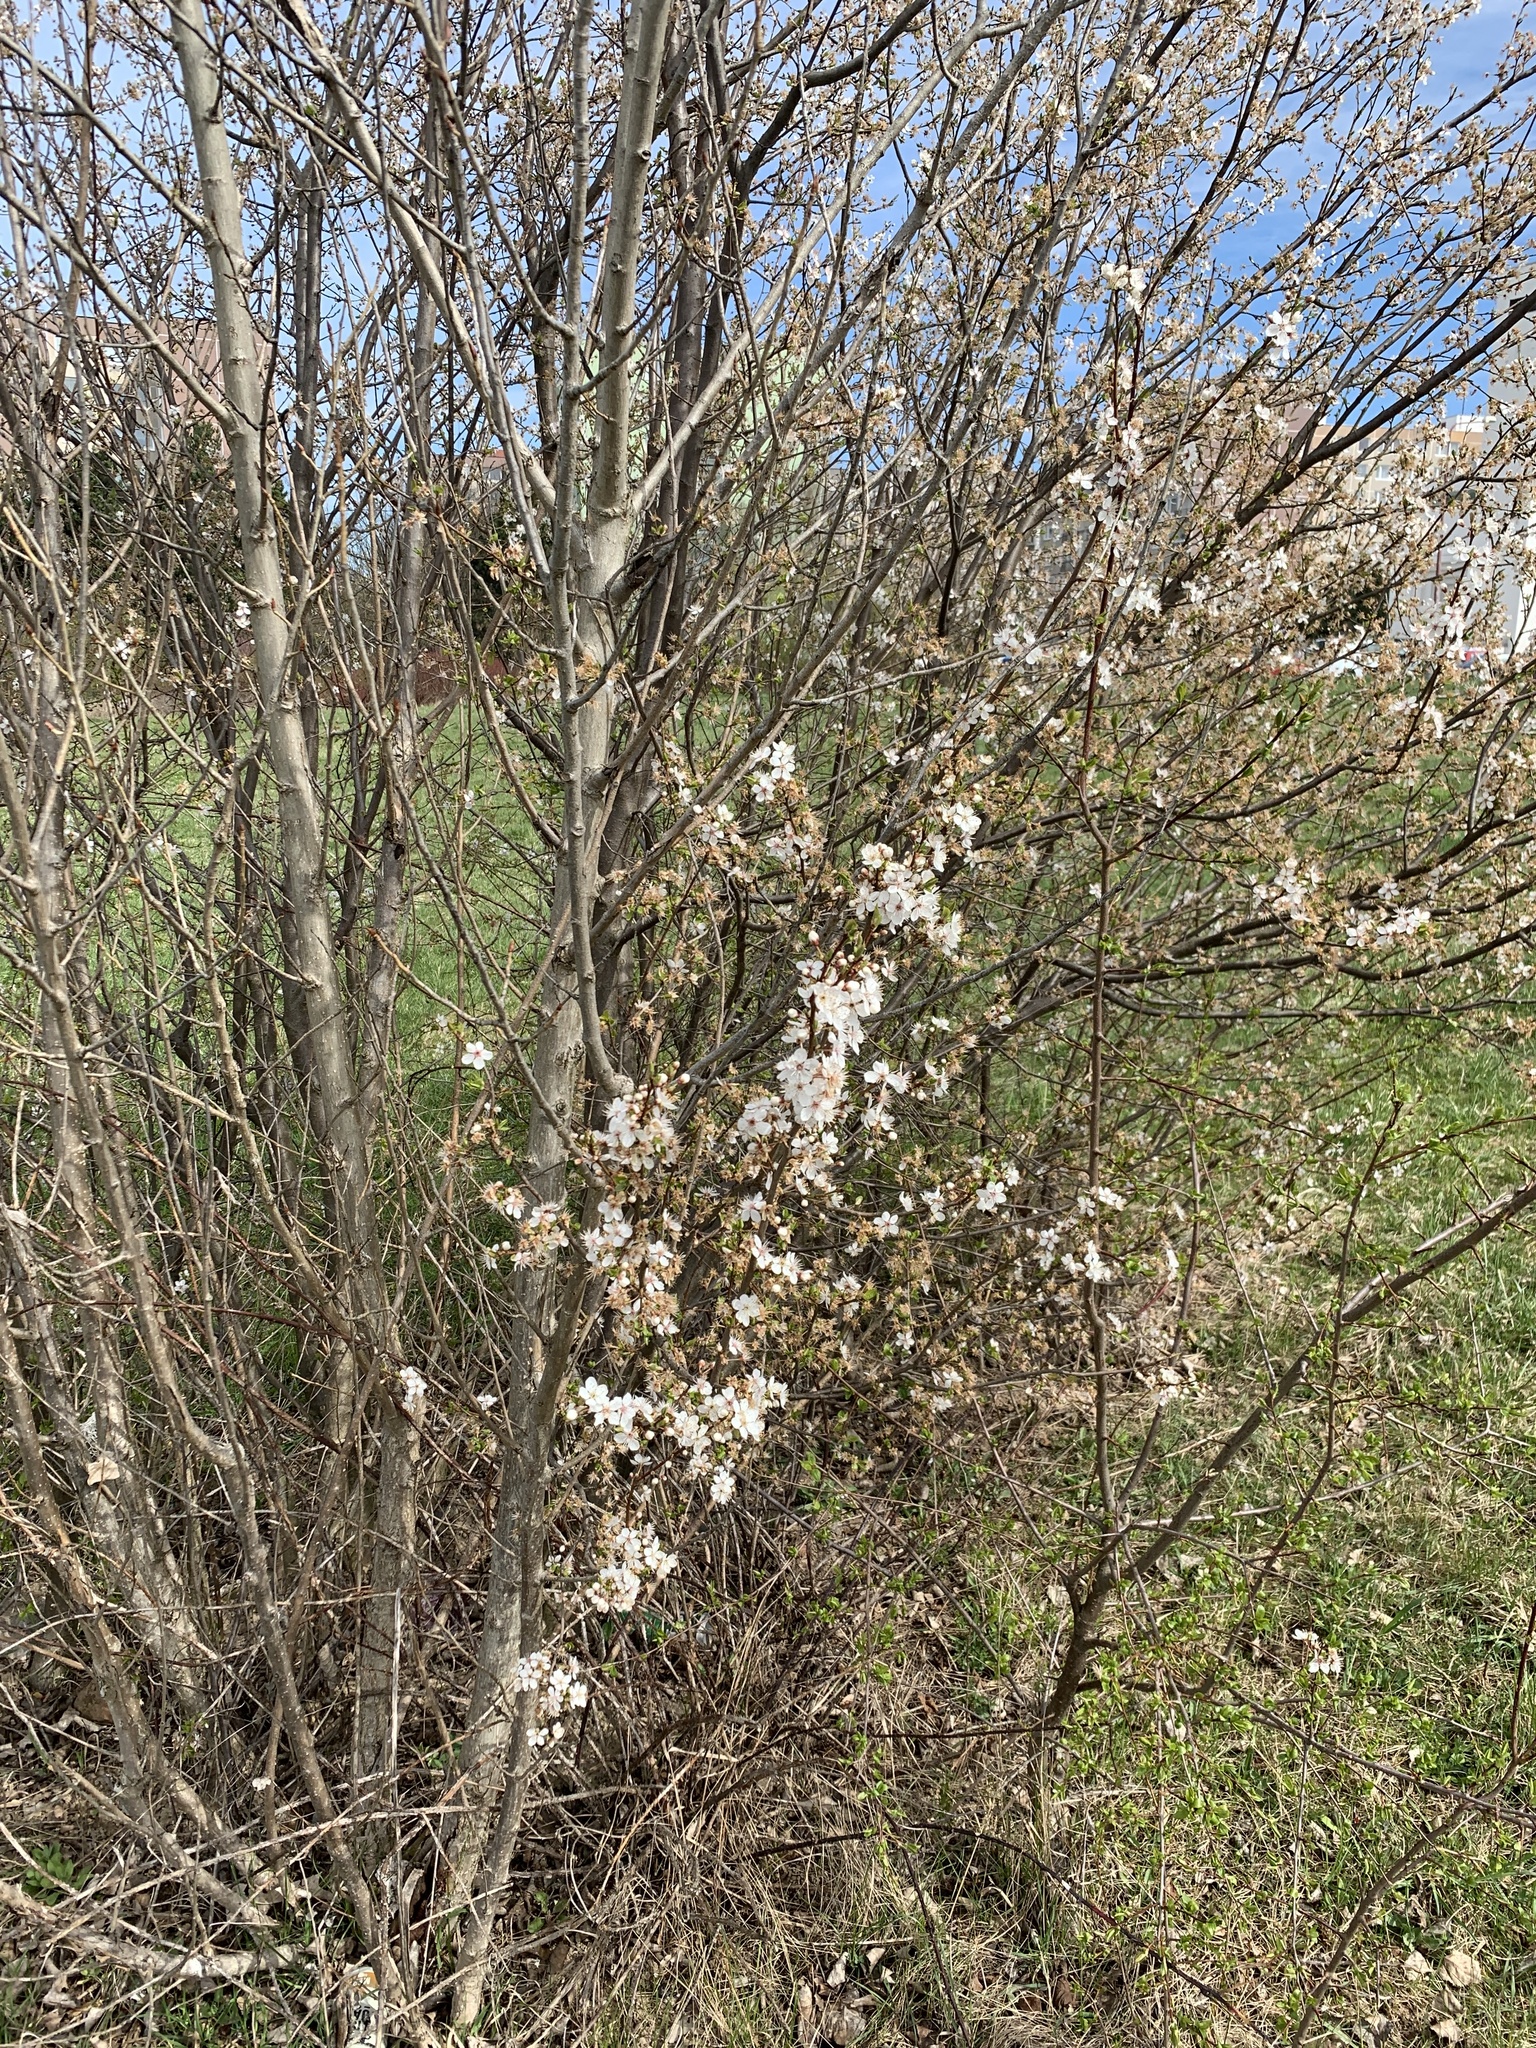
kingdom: Plantae
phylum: Tracheophyta
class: Magnoliopsida
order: Rosales
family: Rosaceae
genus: Prunus
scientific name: Prunus cerasifera
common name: Cherry plum
